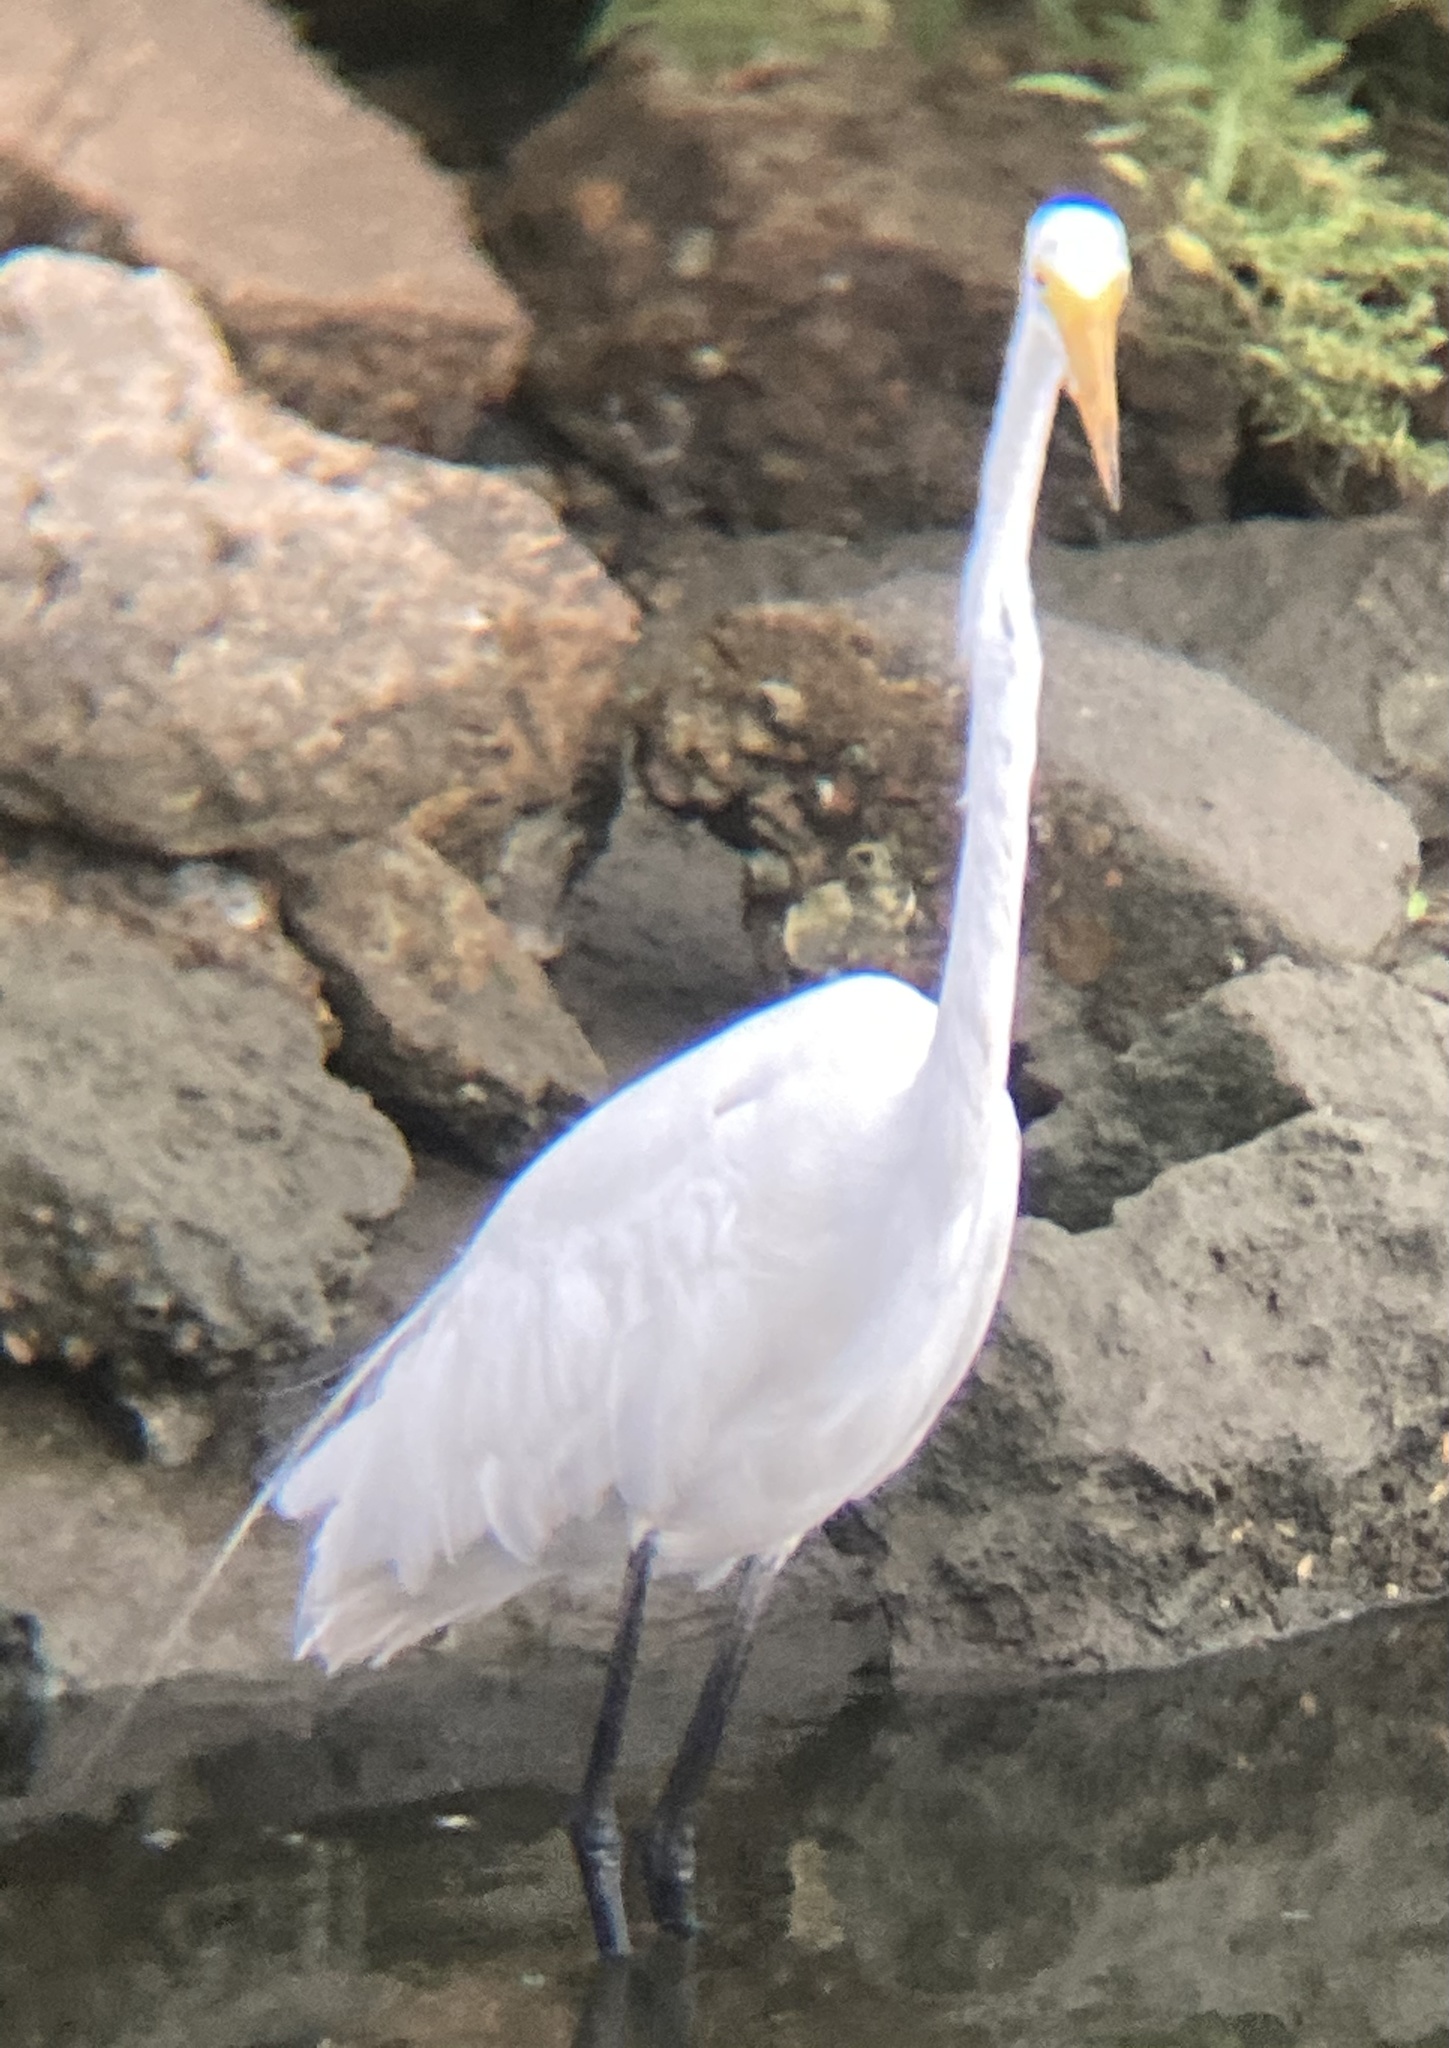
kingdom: Animalia
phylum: Chordata
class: Aves
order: Pelecaniformes
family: Ardeidae
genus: Ardea
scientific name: Ardea alba
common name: Great egret
